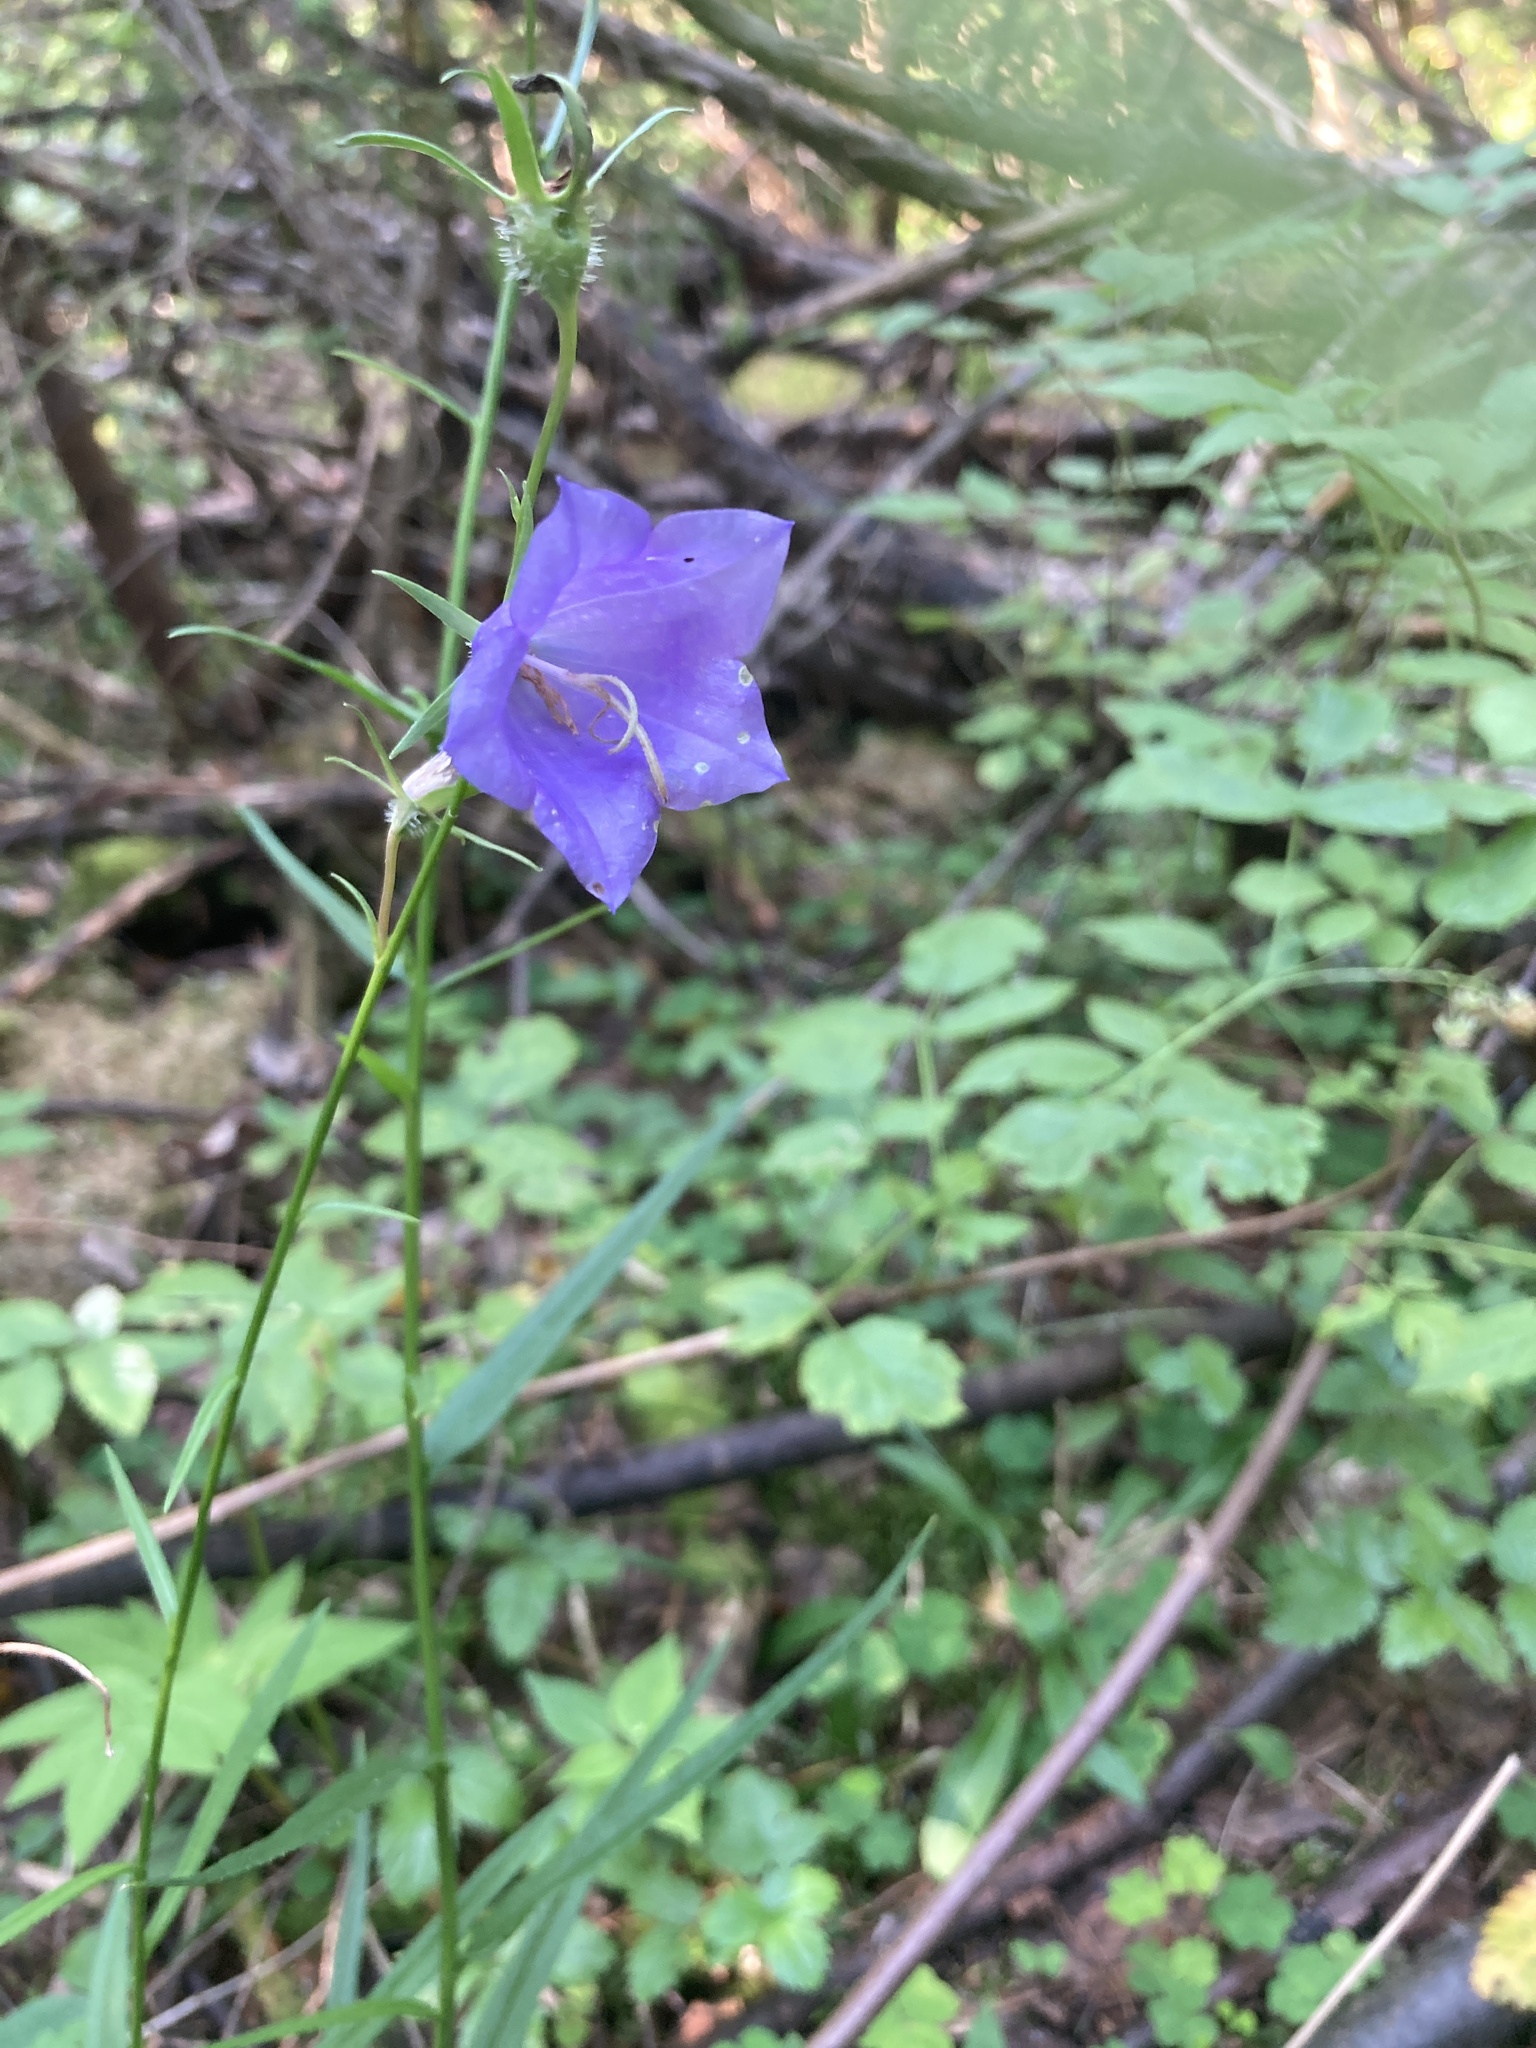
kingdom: Plantae
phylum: Tracheophyta
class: Magnoliopsida
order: Asterales
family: Campanulaceae
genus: Campanula
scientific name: Campanula persicifolia
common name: Peach-leaved bellflower
